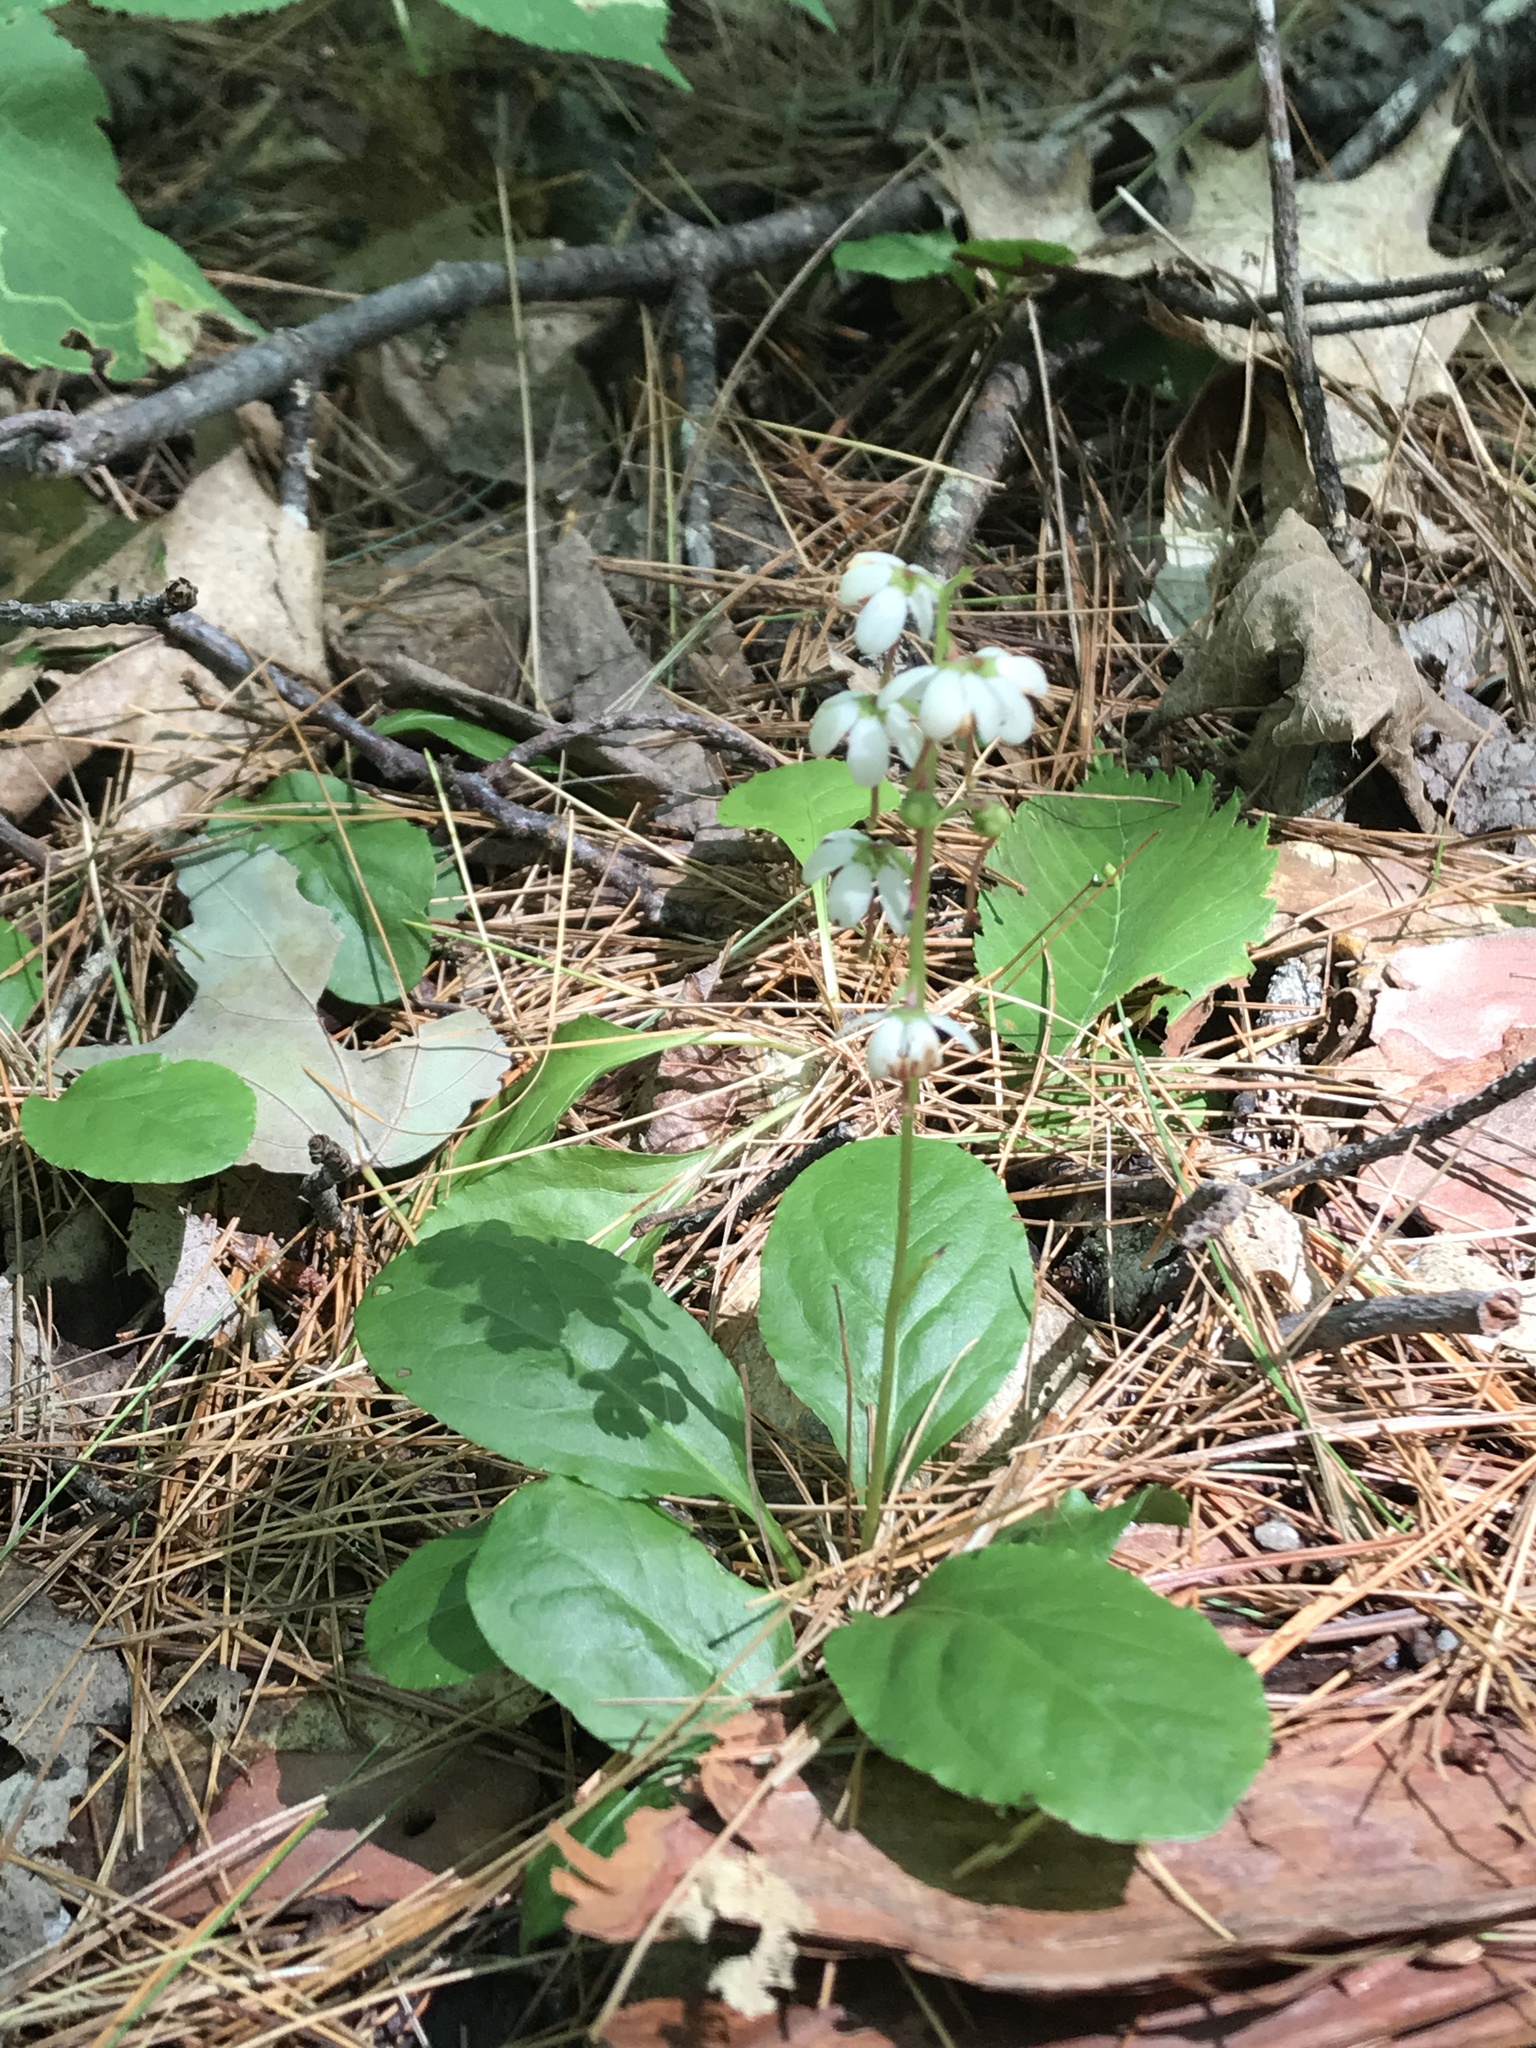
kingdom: Plantae
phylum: Tracheophyta
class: Magnoliopsida
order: Ericales
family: Ericaceae
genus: Pyrola
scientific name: Pyrola elliptica
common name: Shinleaf
